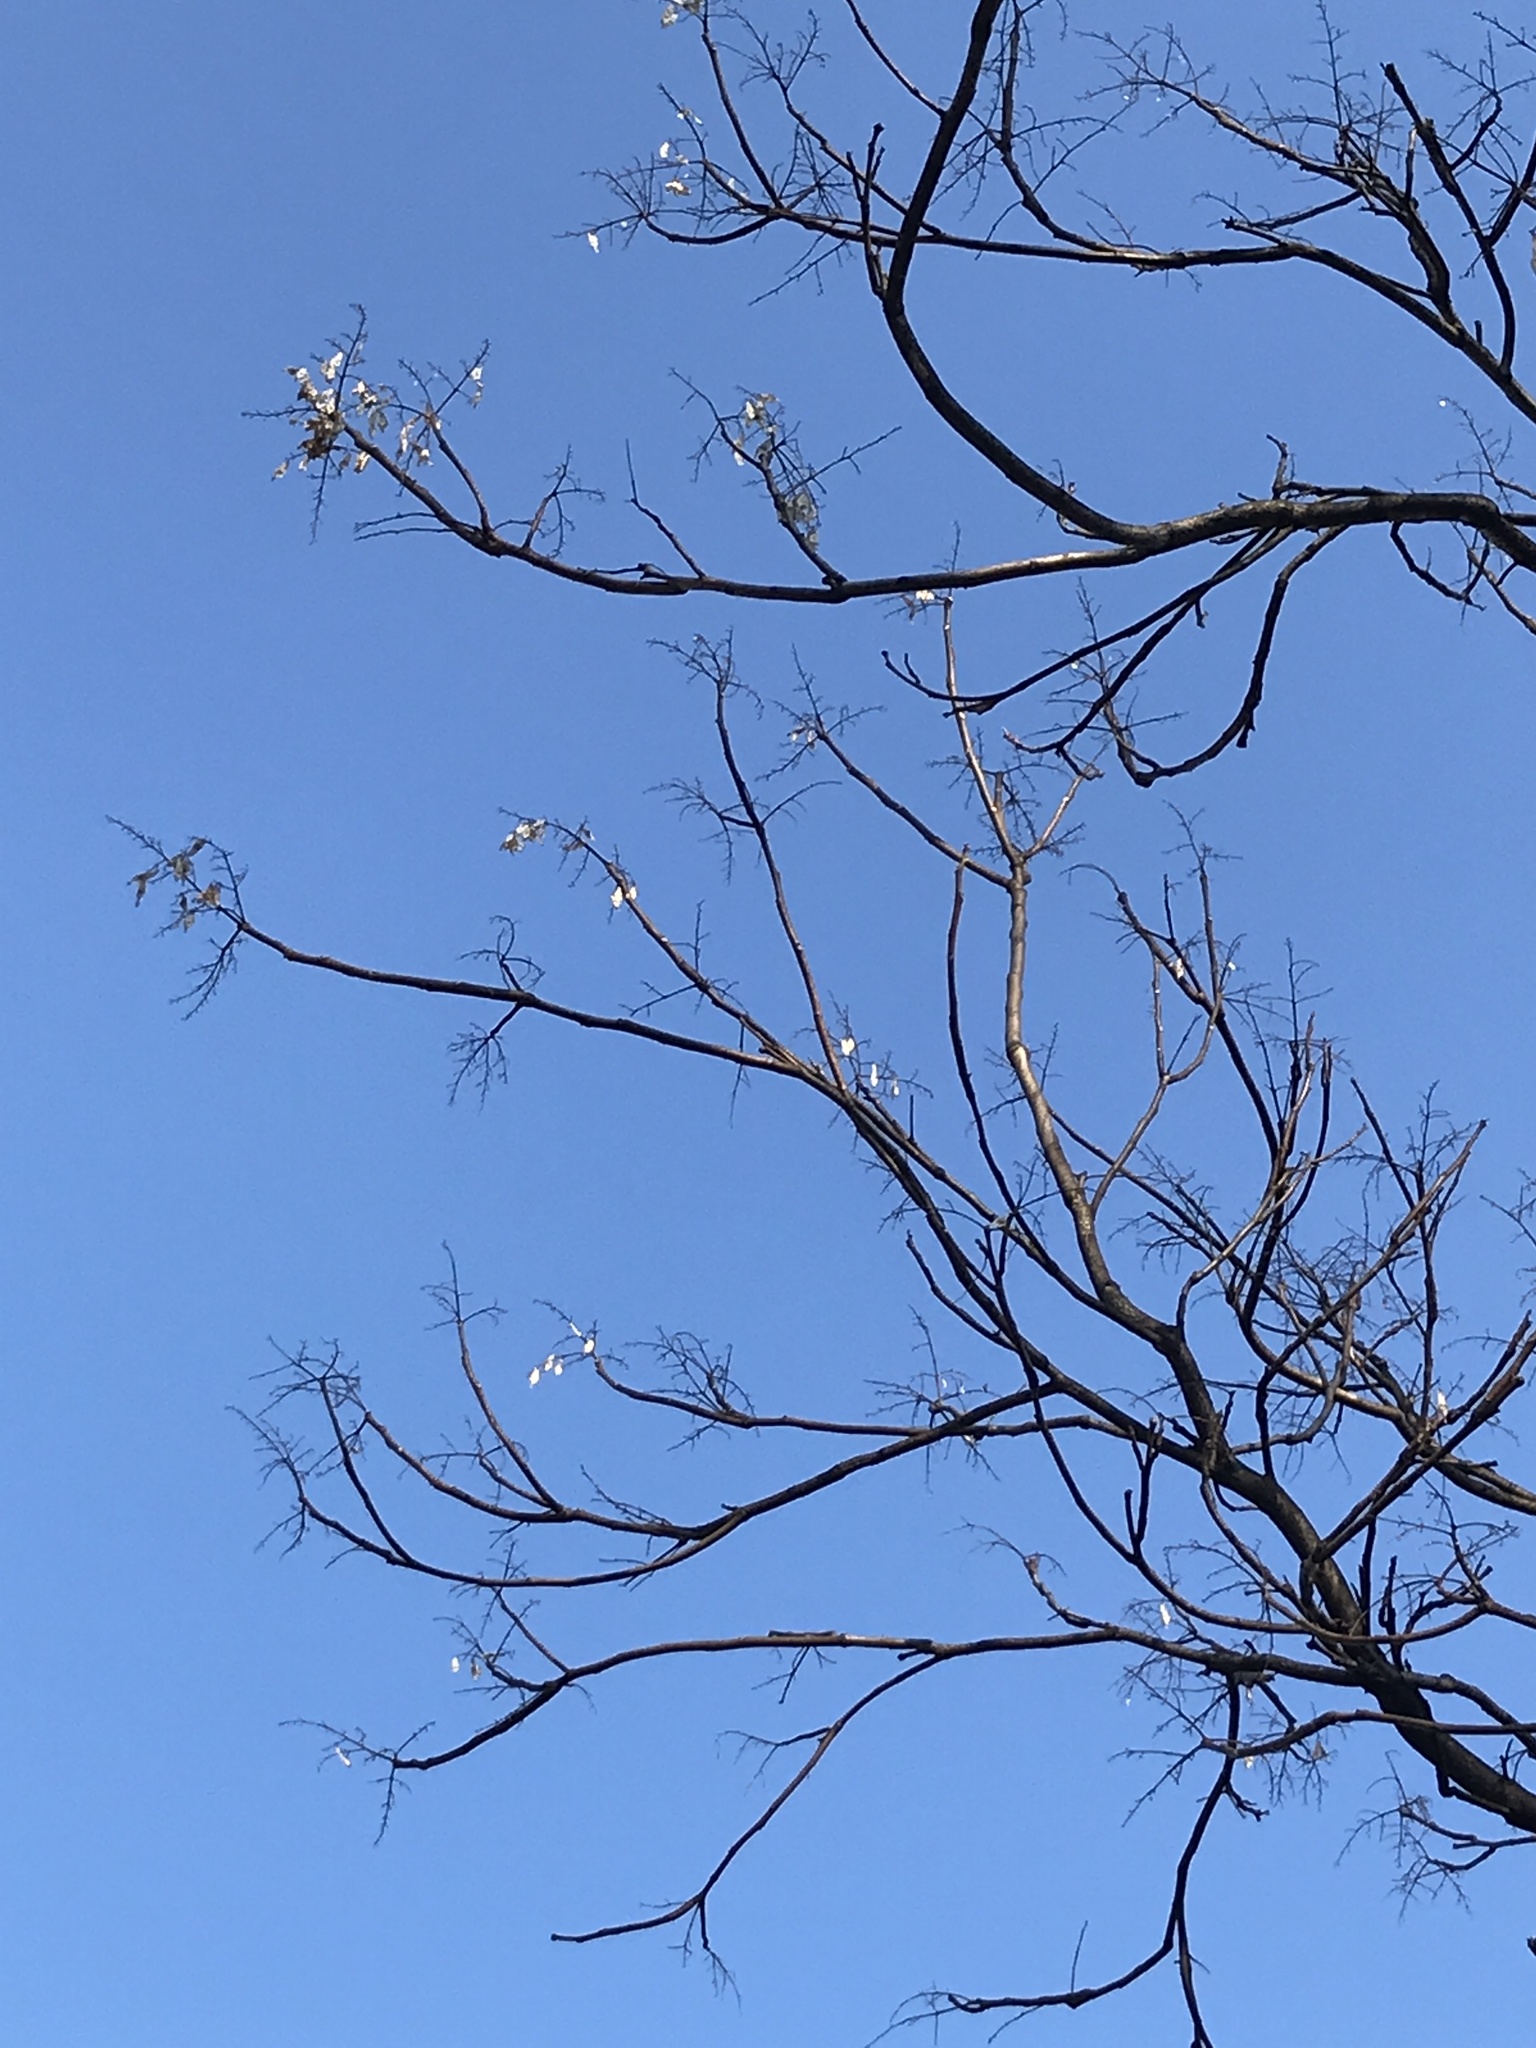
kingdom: Plantae
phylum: Tracheophyta
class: Magnoliopsida
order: Sapindales
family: Simaroubaceae
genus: Ailanthus
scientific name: Ailanthus altissima
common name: Tree-of-heaven
